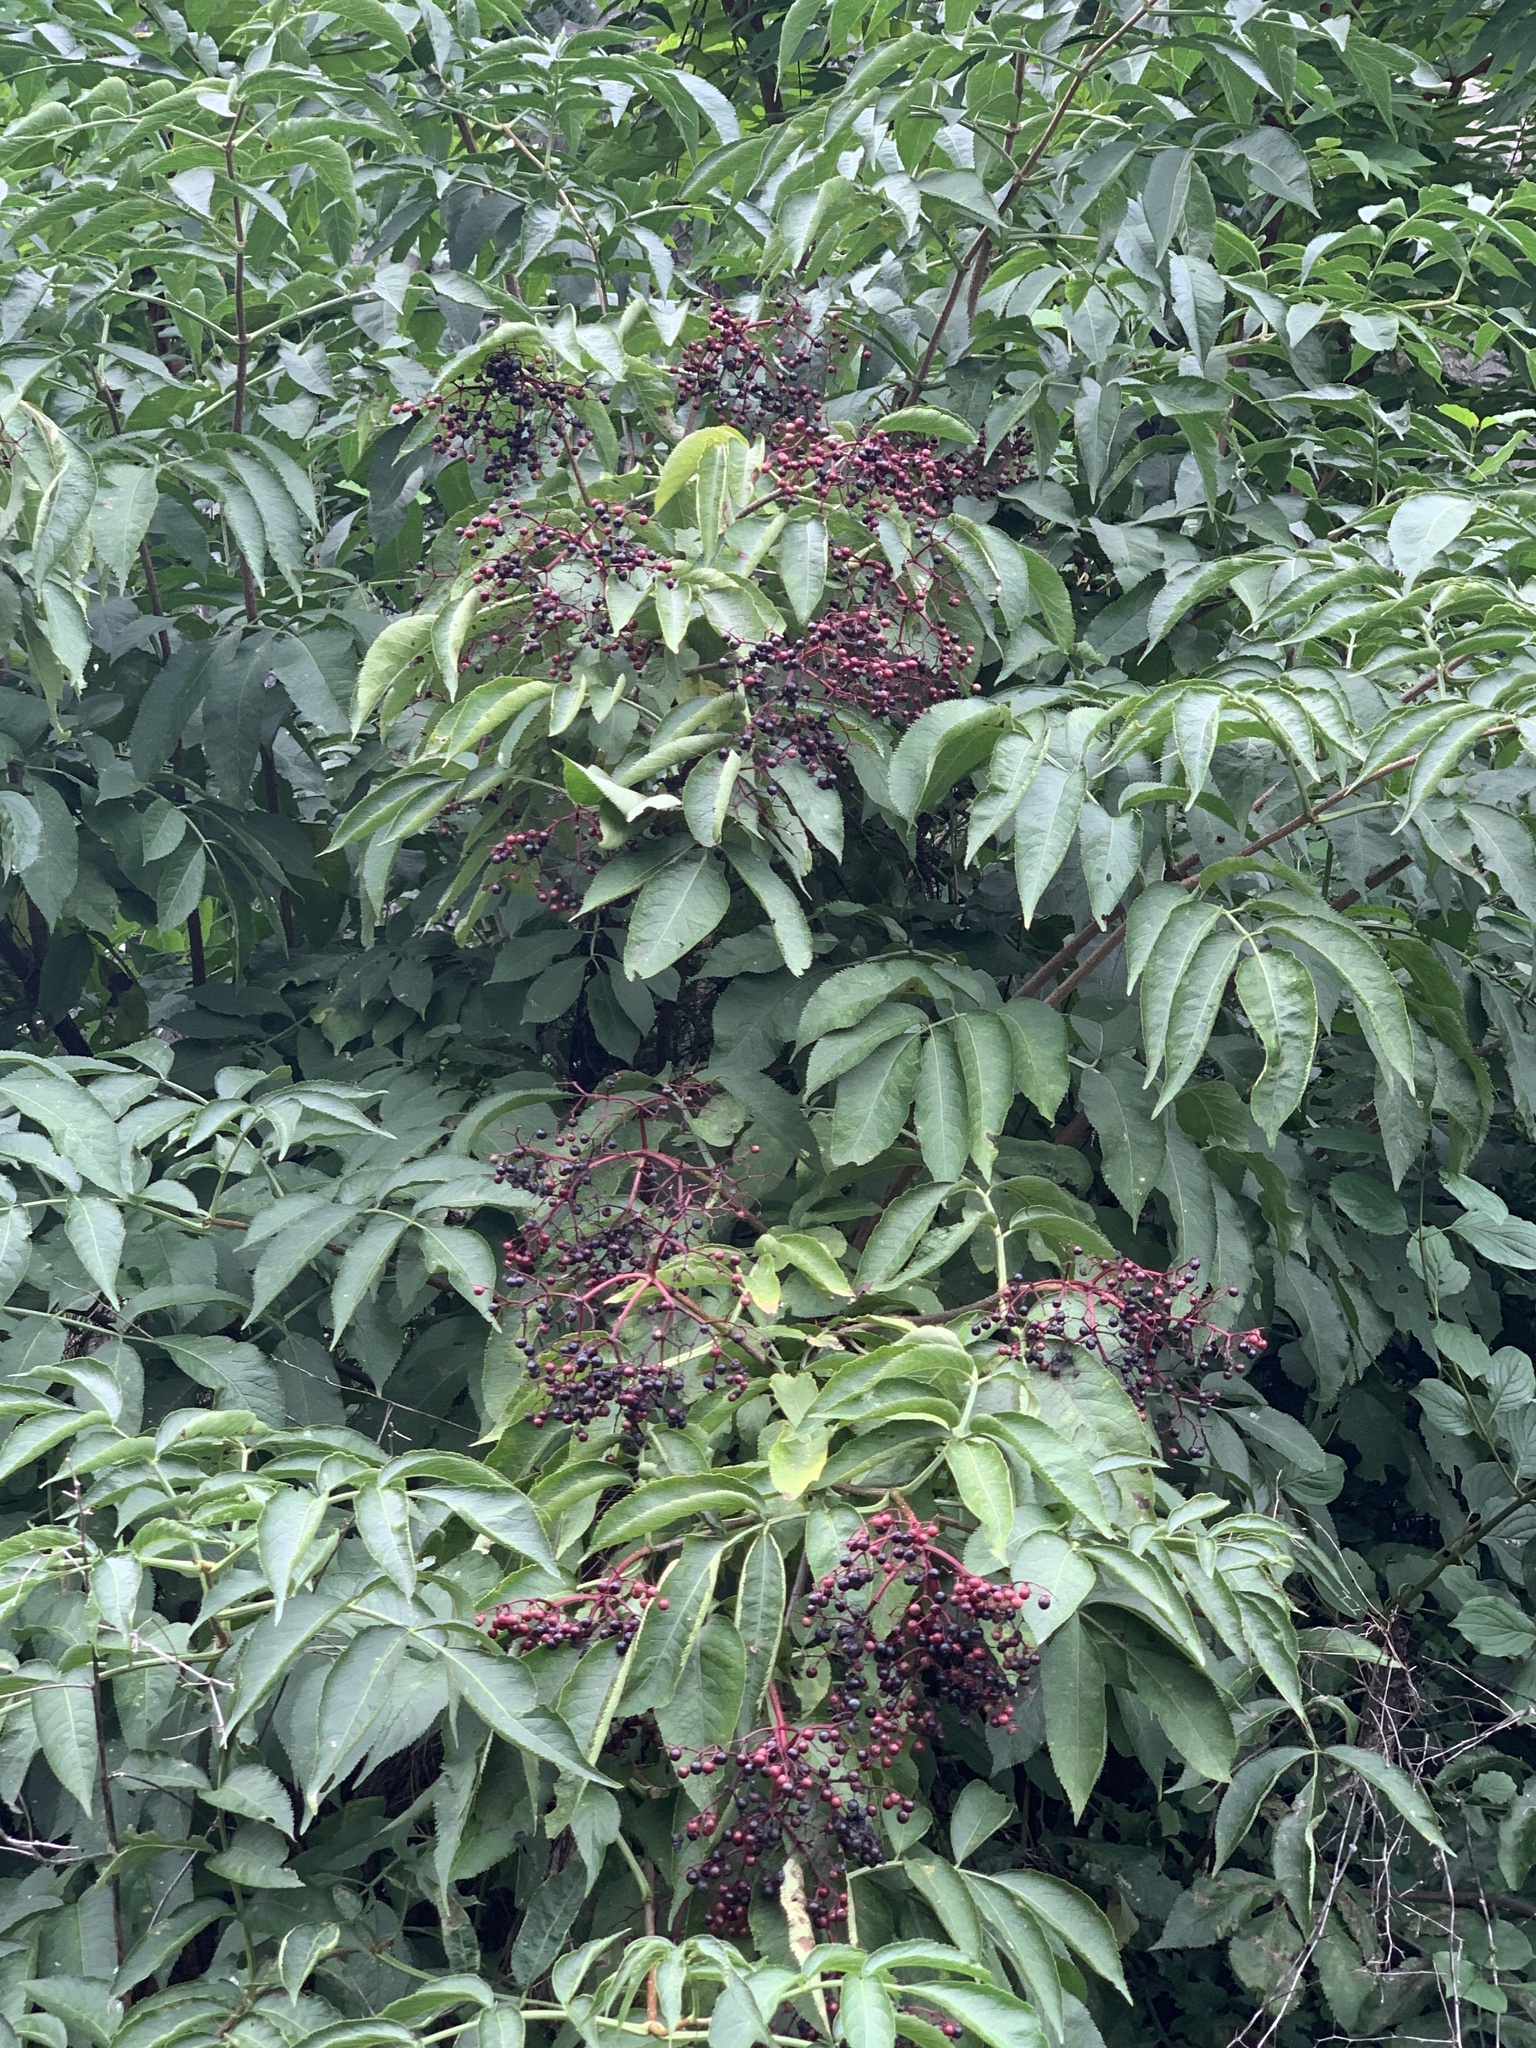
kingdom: Plantae
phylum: Tracheophyta
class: Magnoliopsida
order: Dipsacales
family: Viburnaceae
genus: Sambucus
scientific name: Sambucus nigra
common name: Elder
